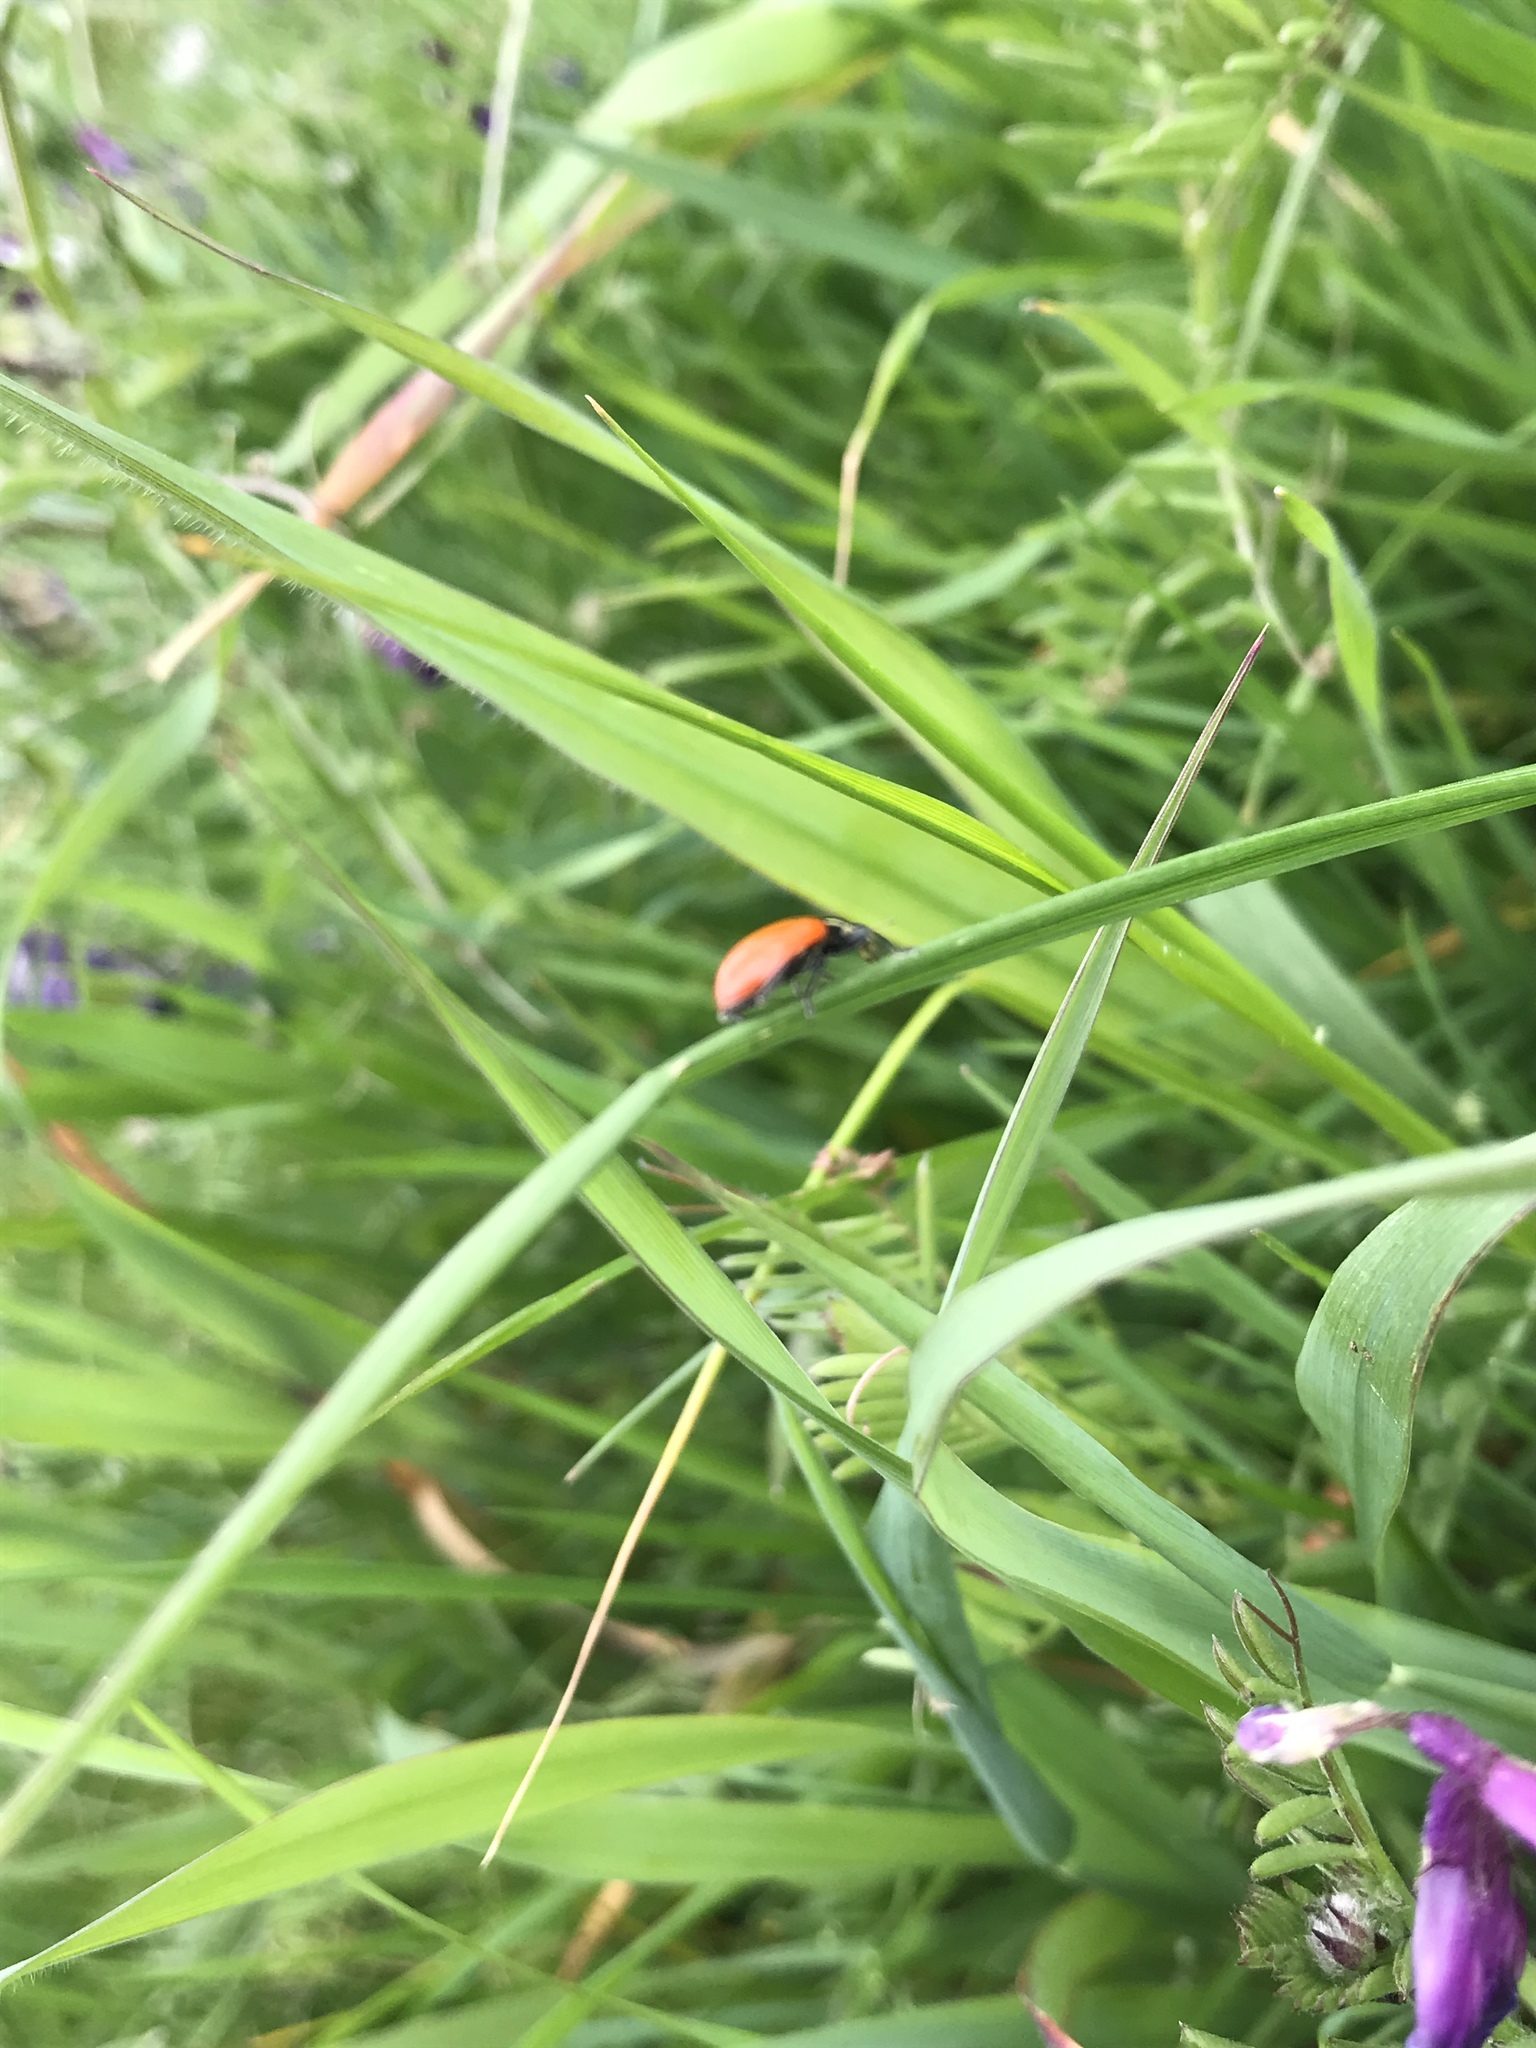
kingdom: Animalia
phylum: Arthropoda
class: Insecta
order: Coleoptera
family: Coccinellidae
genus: Hippodamia
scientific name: Hippodamia convergens
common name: Convergent lady beetle
